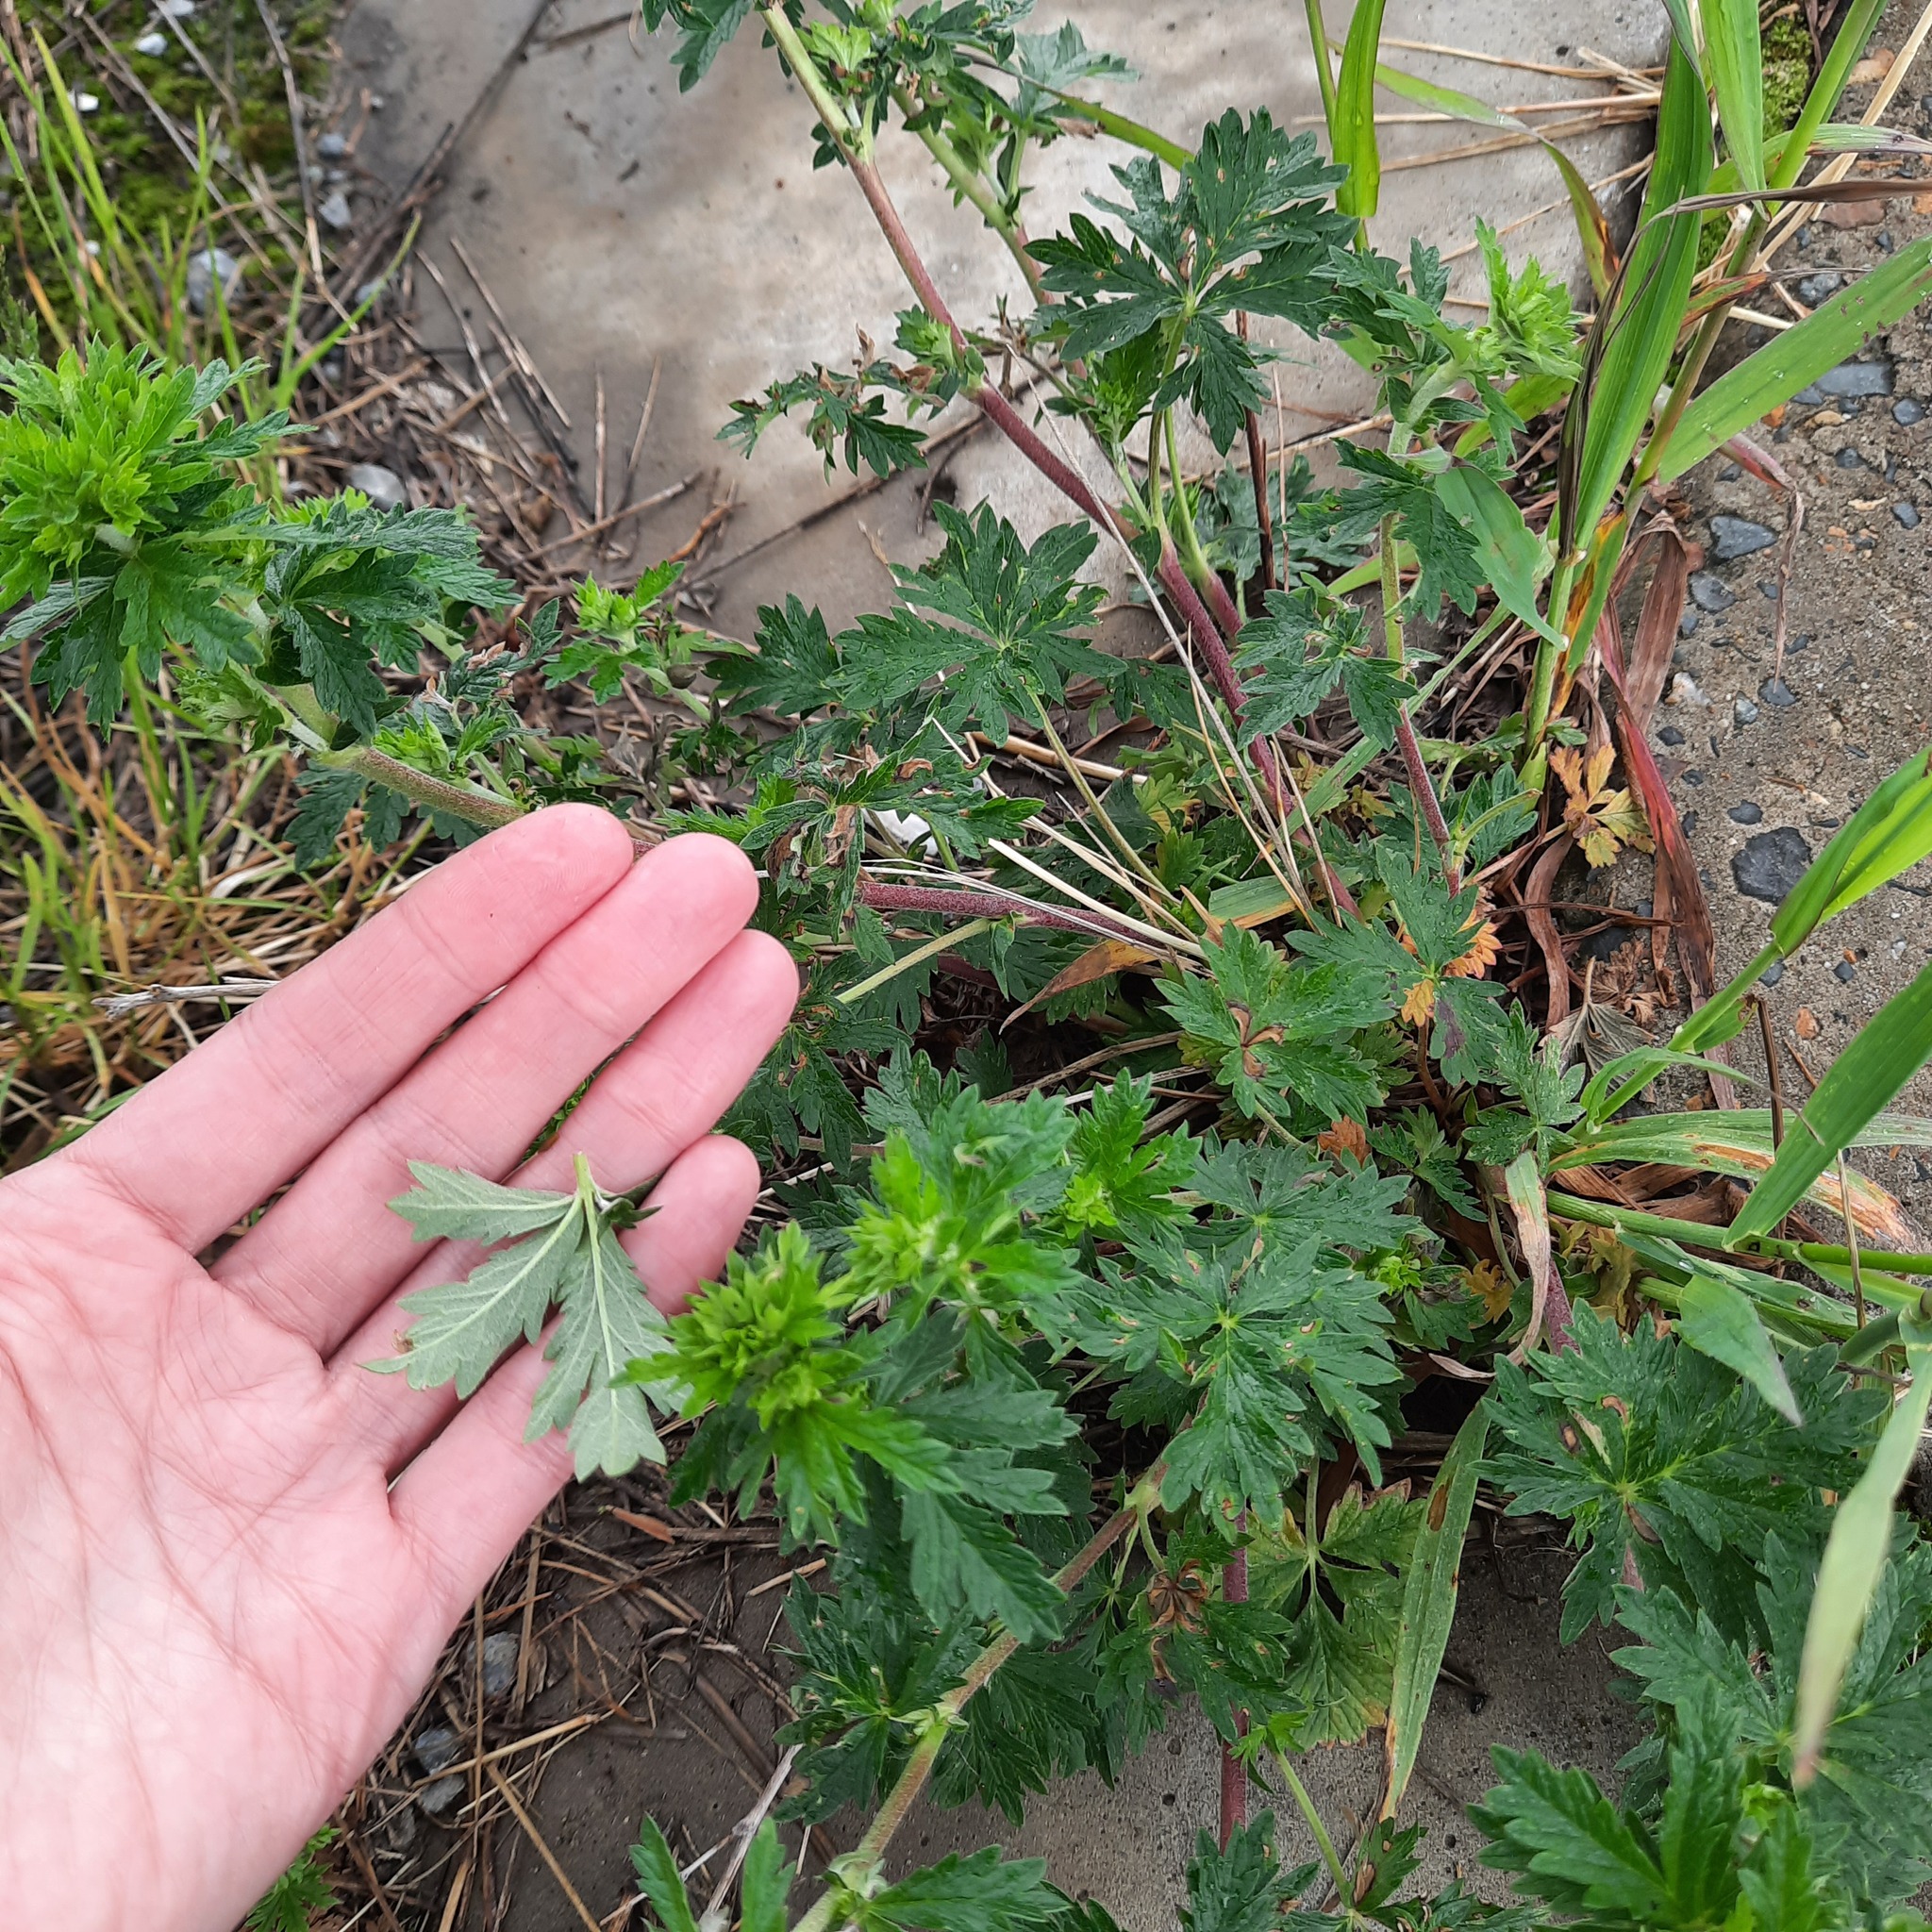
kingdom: Plantae
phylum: Tracheophyta
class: Magnoliopsida
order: Rosales
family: Rosaceae
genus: Potentilla
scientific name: Potentilla intermedia
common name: Downy cinquefoil
